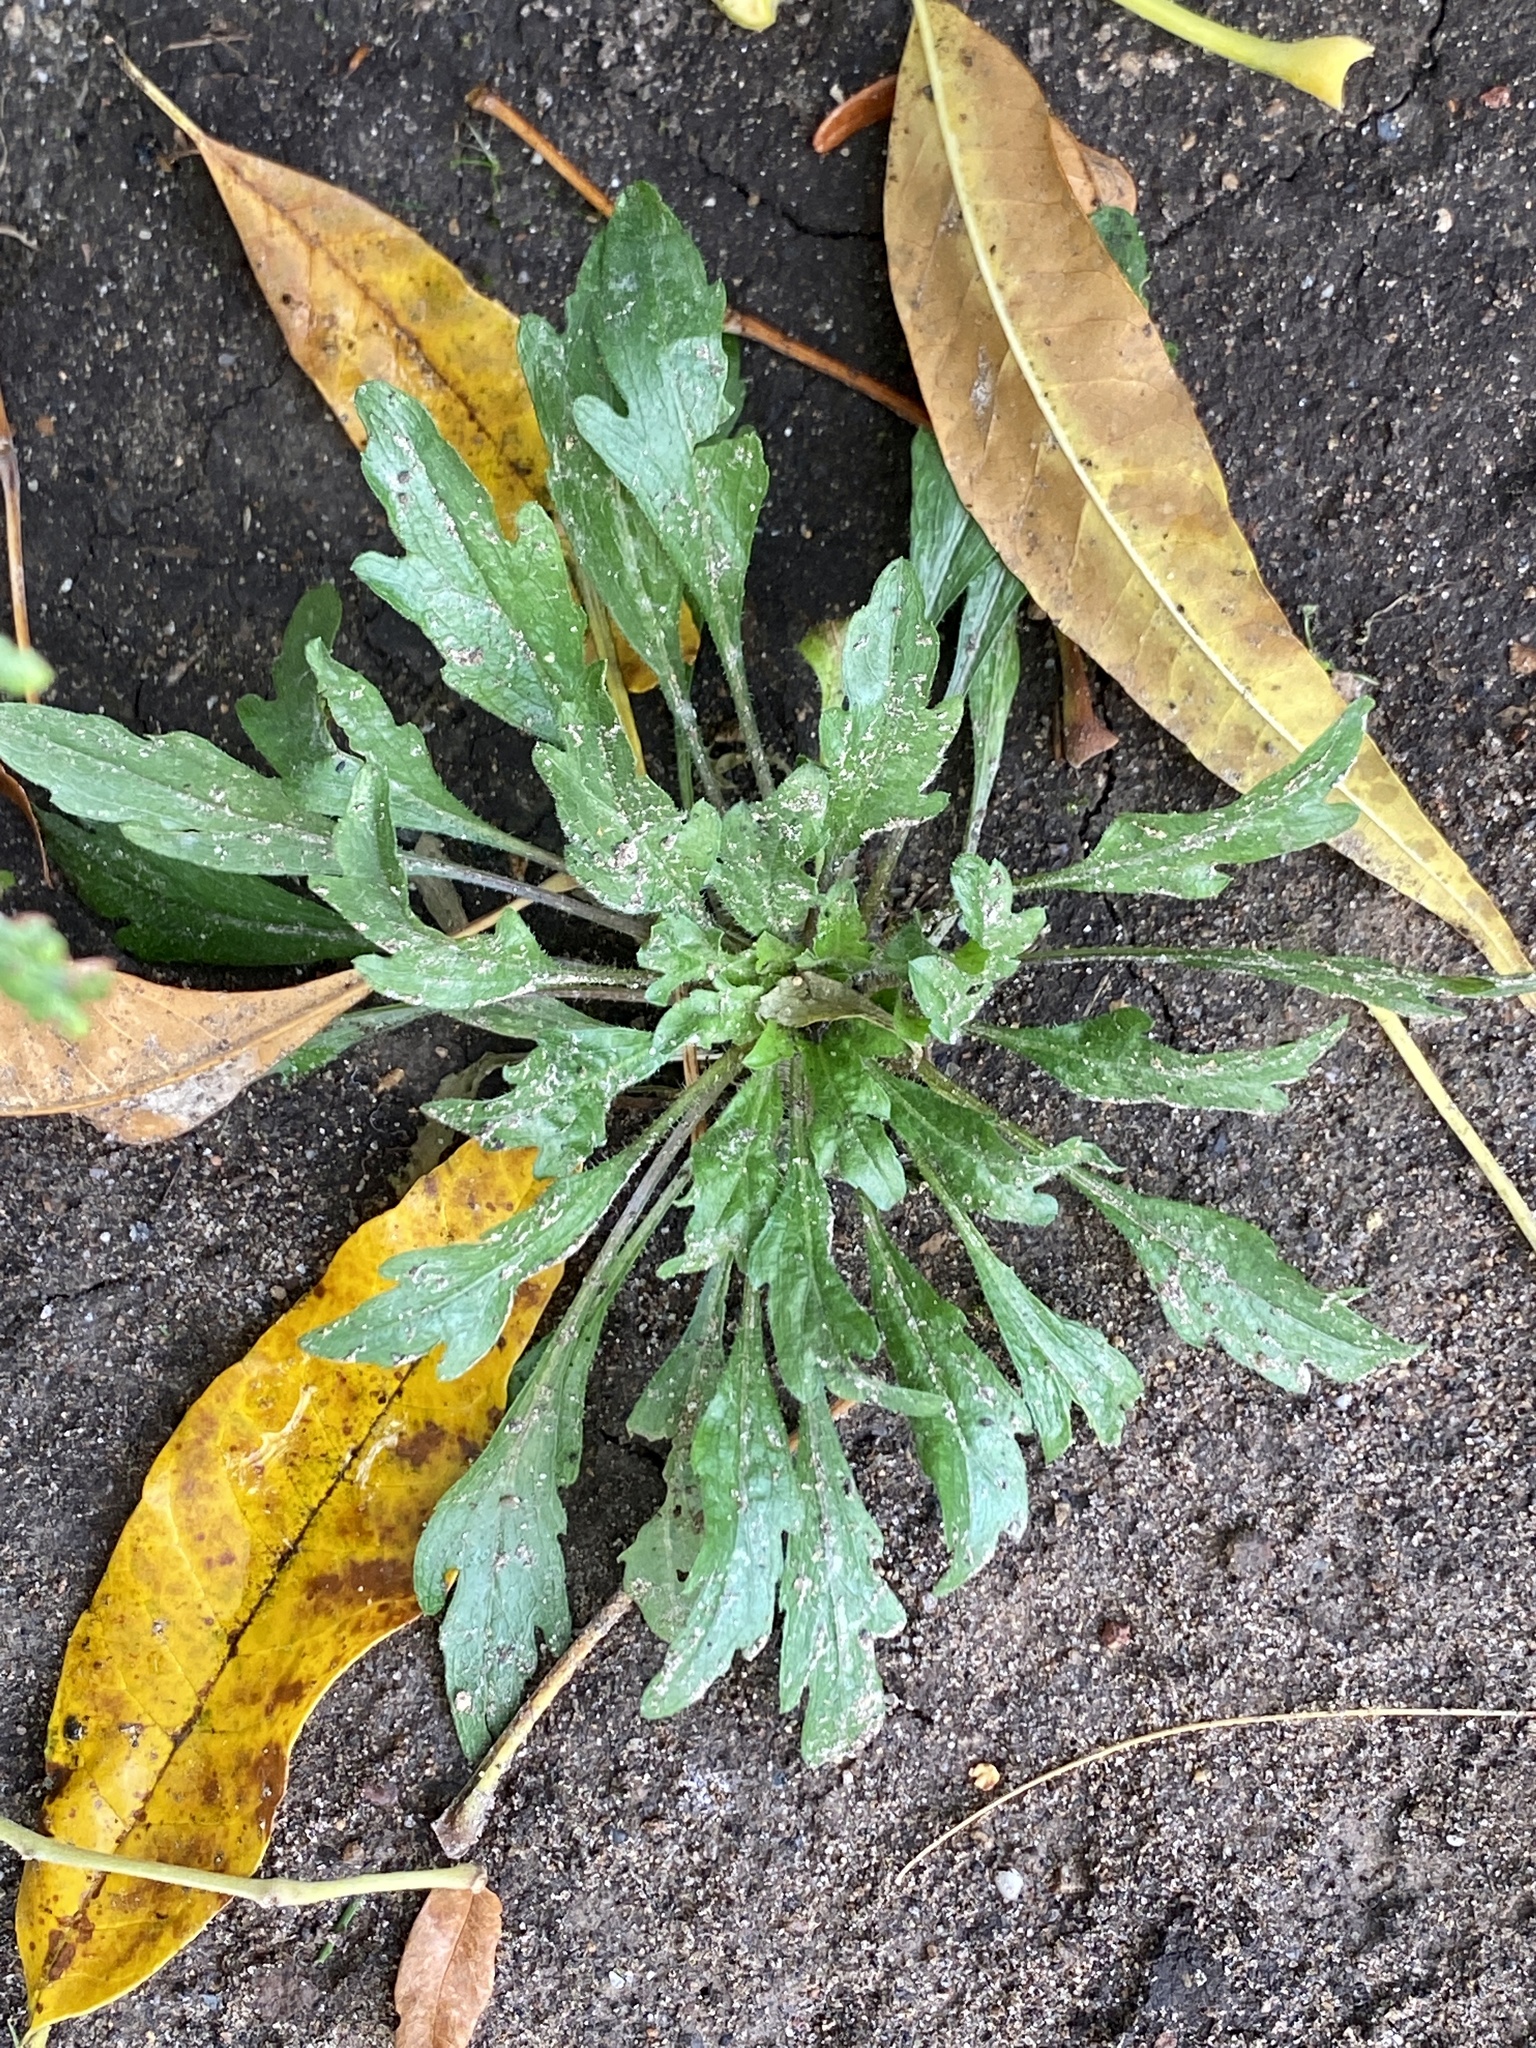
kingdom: Plantae
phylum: Tracheophyta
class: Magnoliopsida
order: Asterales
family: Asteraceae
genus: Erigeron
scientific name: Erigeron canadensis
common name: Canadian fleabane
